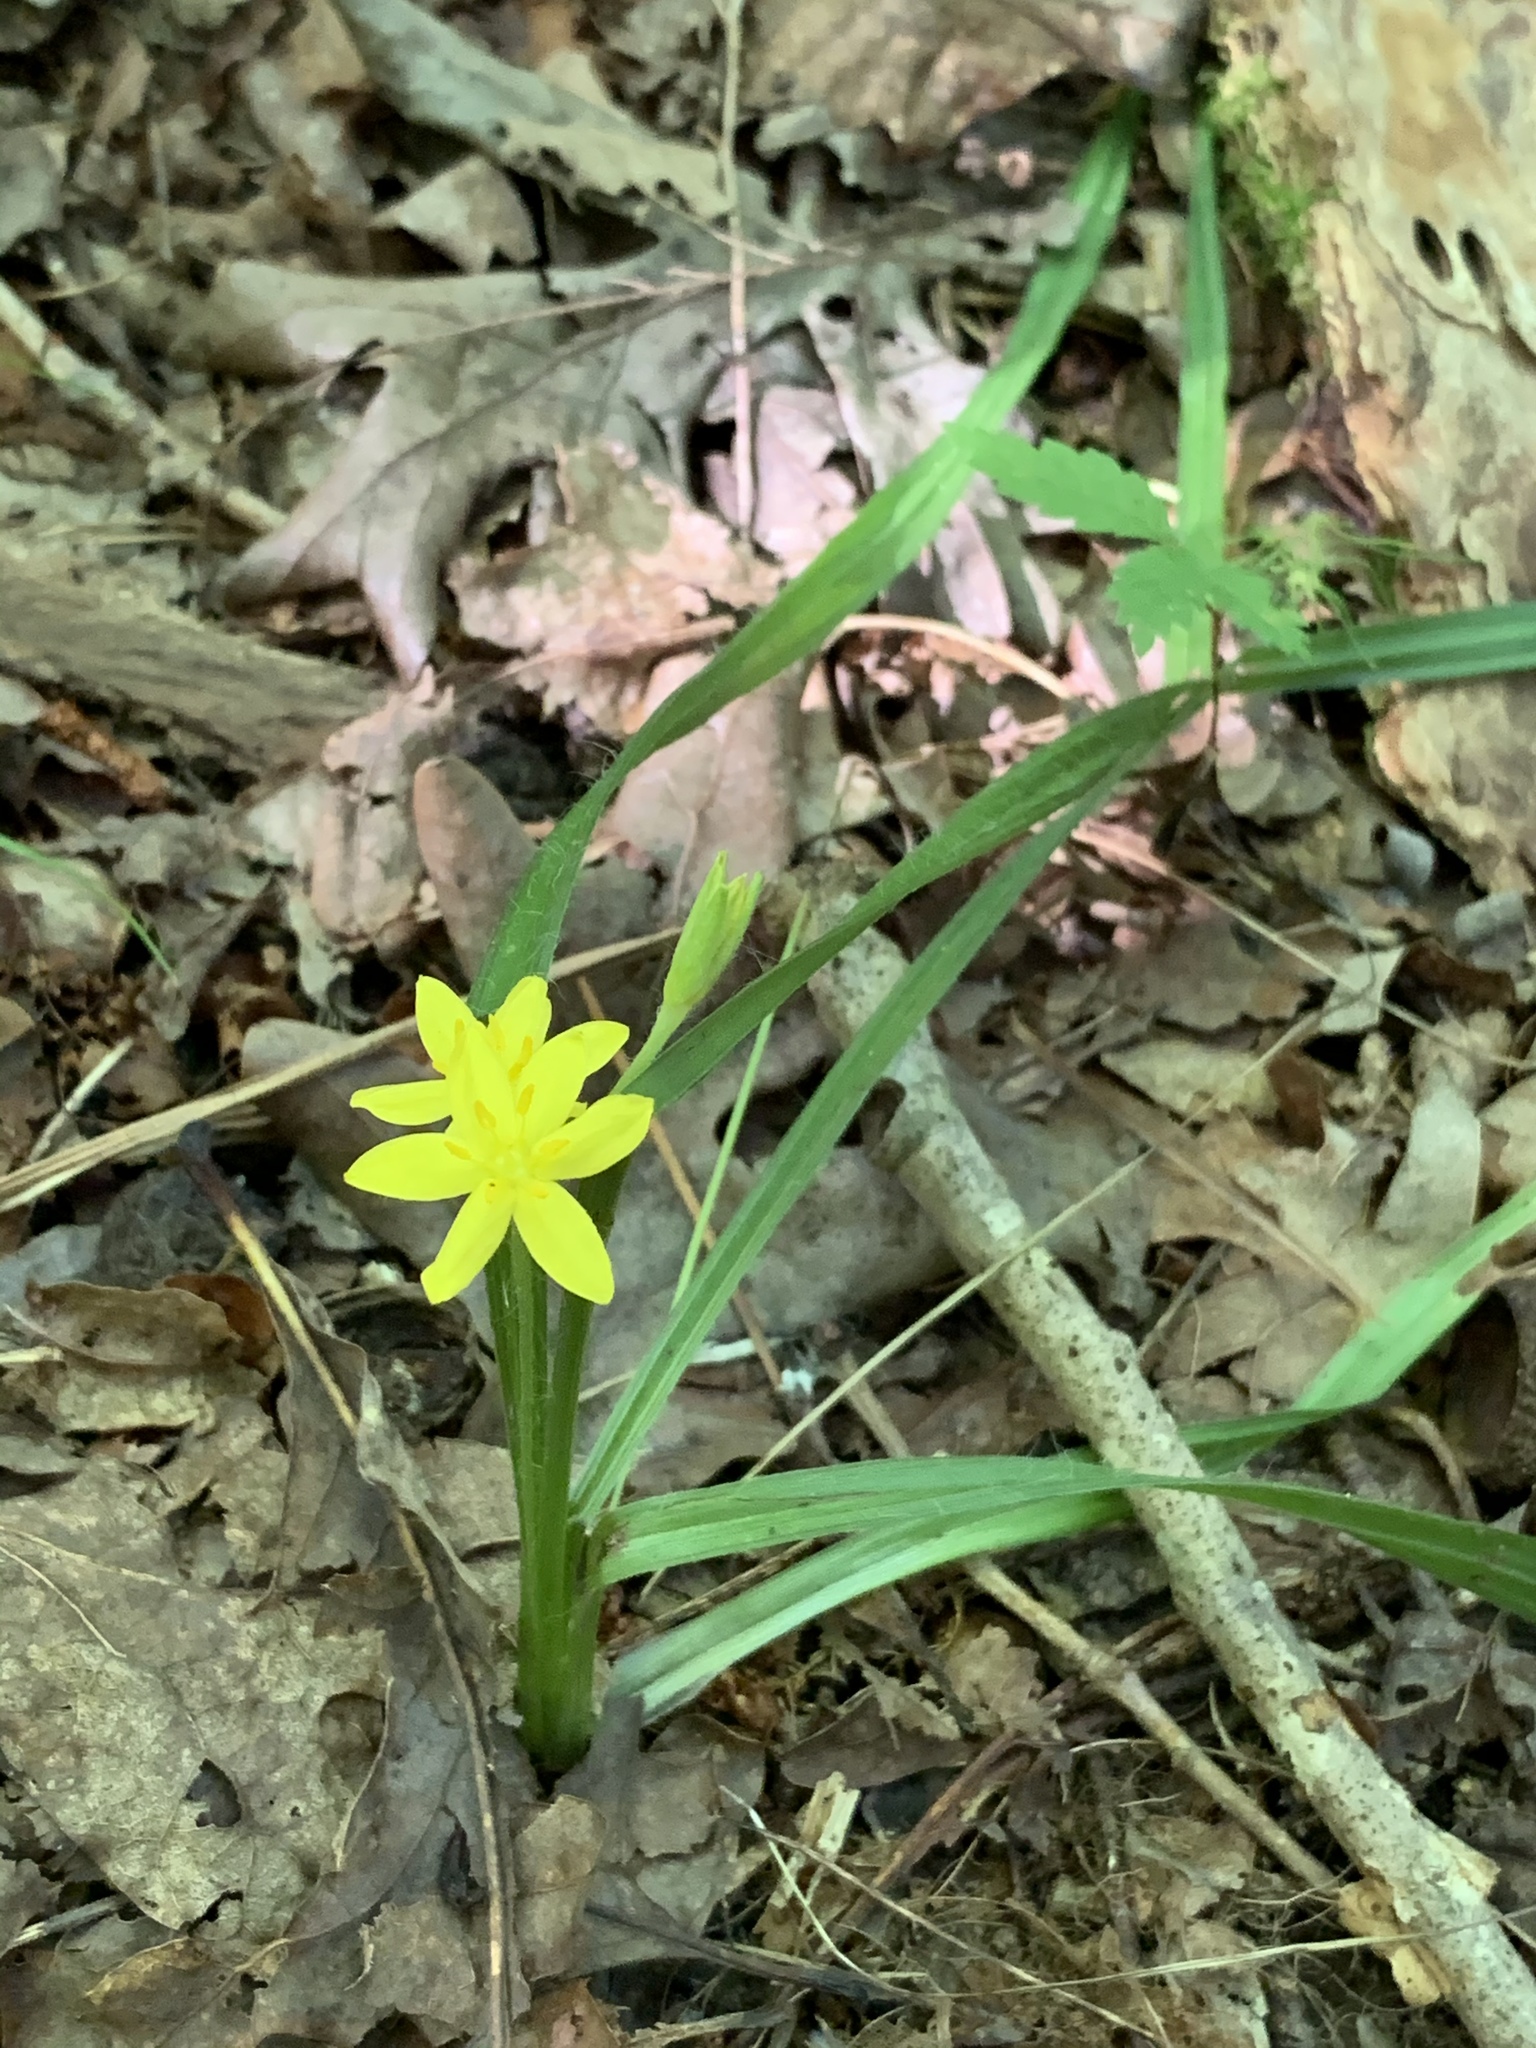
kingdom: Plantae
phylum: Tracheophyta
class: Liliopsida
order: Asparagales
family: Hypoxidaceae
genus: Hypoxis
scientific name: Hypoxis hirsuta
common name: Common goldstar
